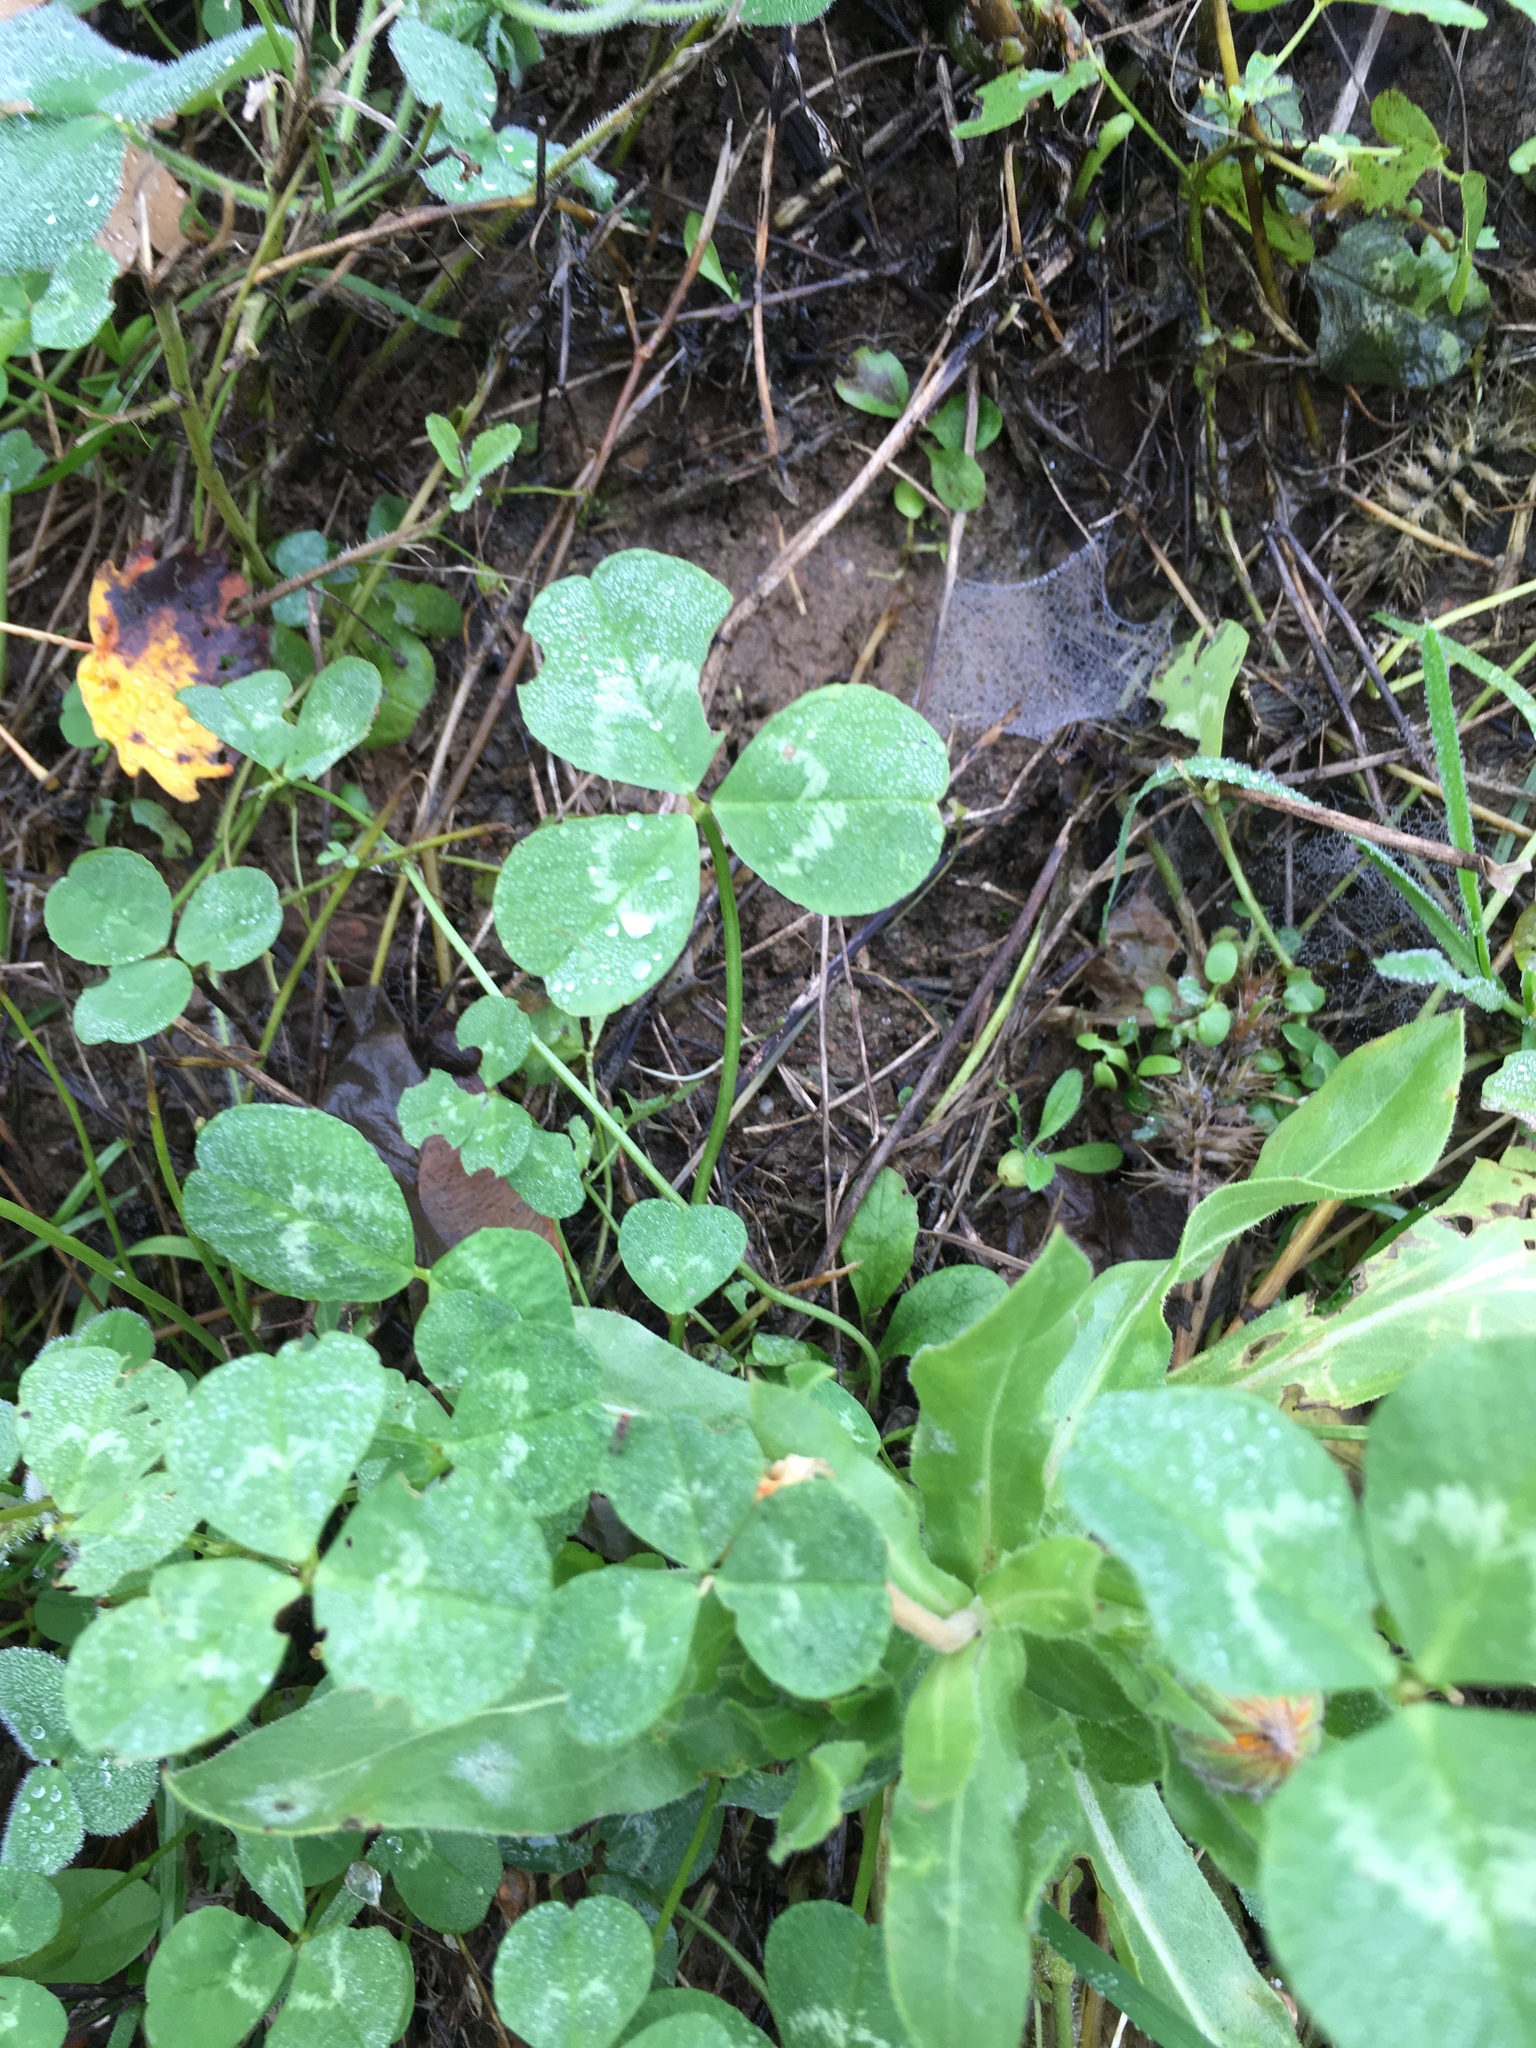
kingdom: Plantae
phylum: Tracheophyta
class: Magnoliopsida
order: Fabales
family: Fabaceae
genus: Trifolium
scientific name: Trifolium repens
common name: White clover
